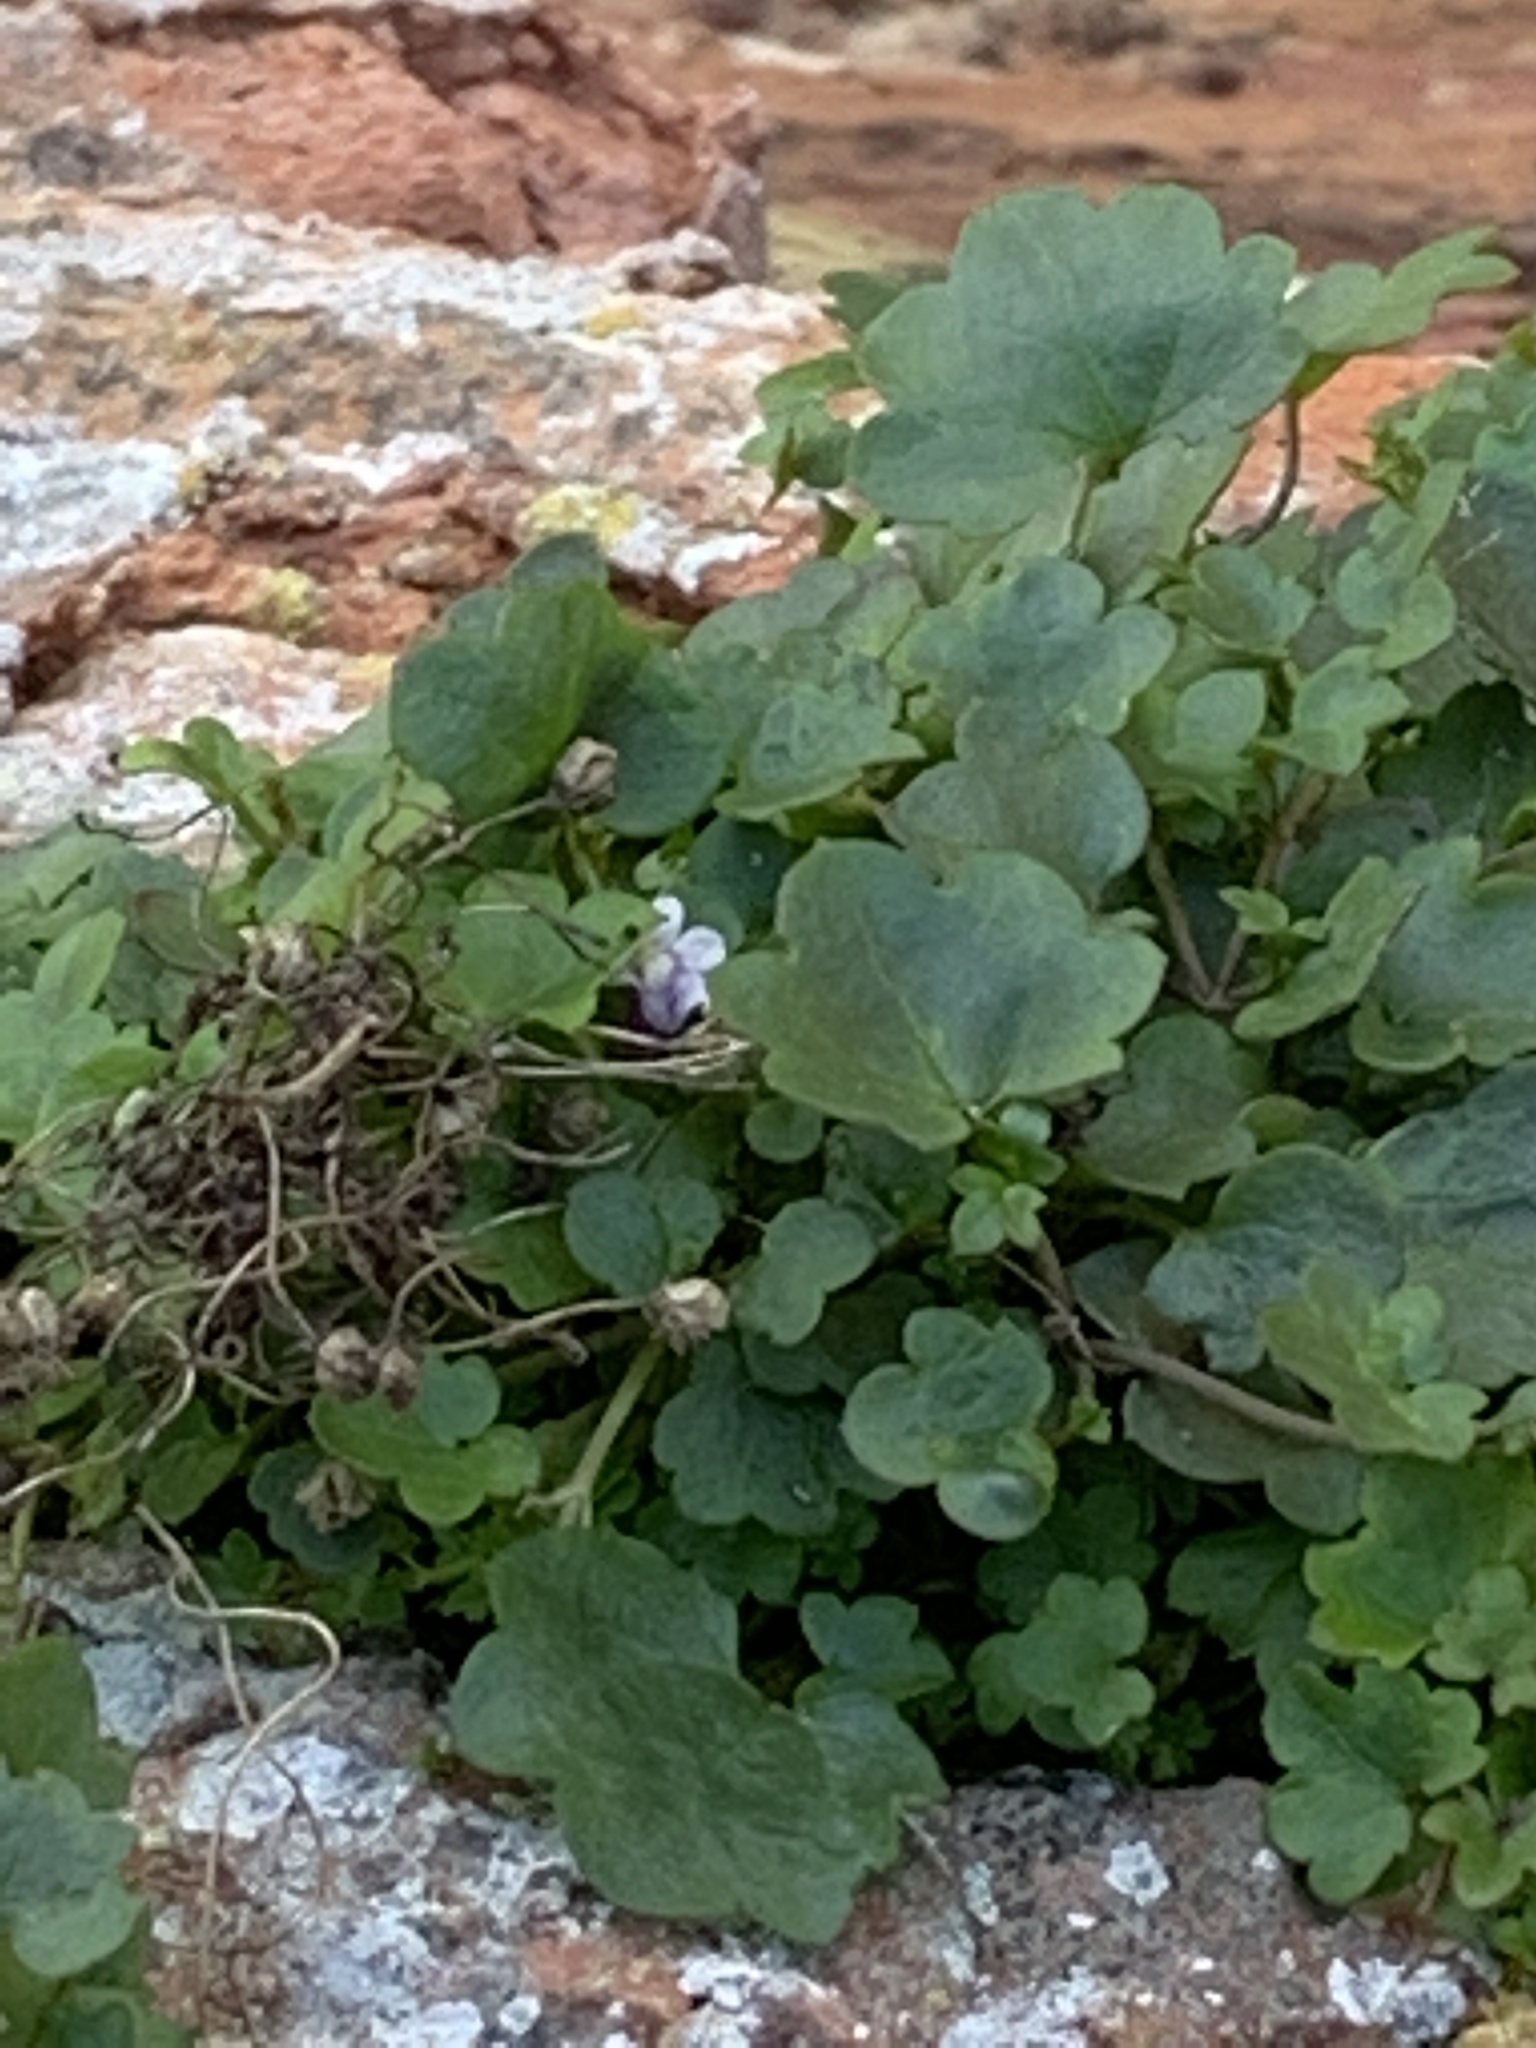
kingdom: Plantae
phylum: Tracheophyta
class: Magnoliopsida
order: Lamiales
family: Plantaginaceae
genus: Cymbalaria
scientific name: Cymbalaria muralis
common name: Ivy-leaved toadflax
